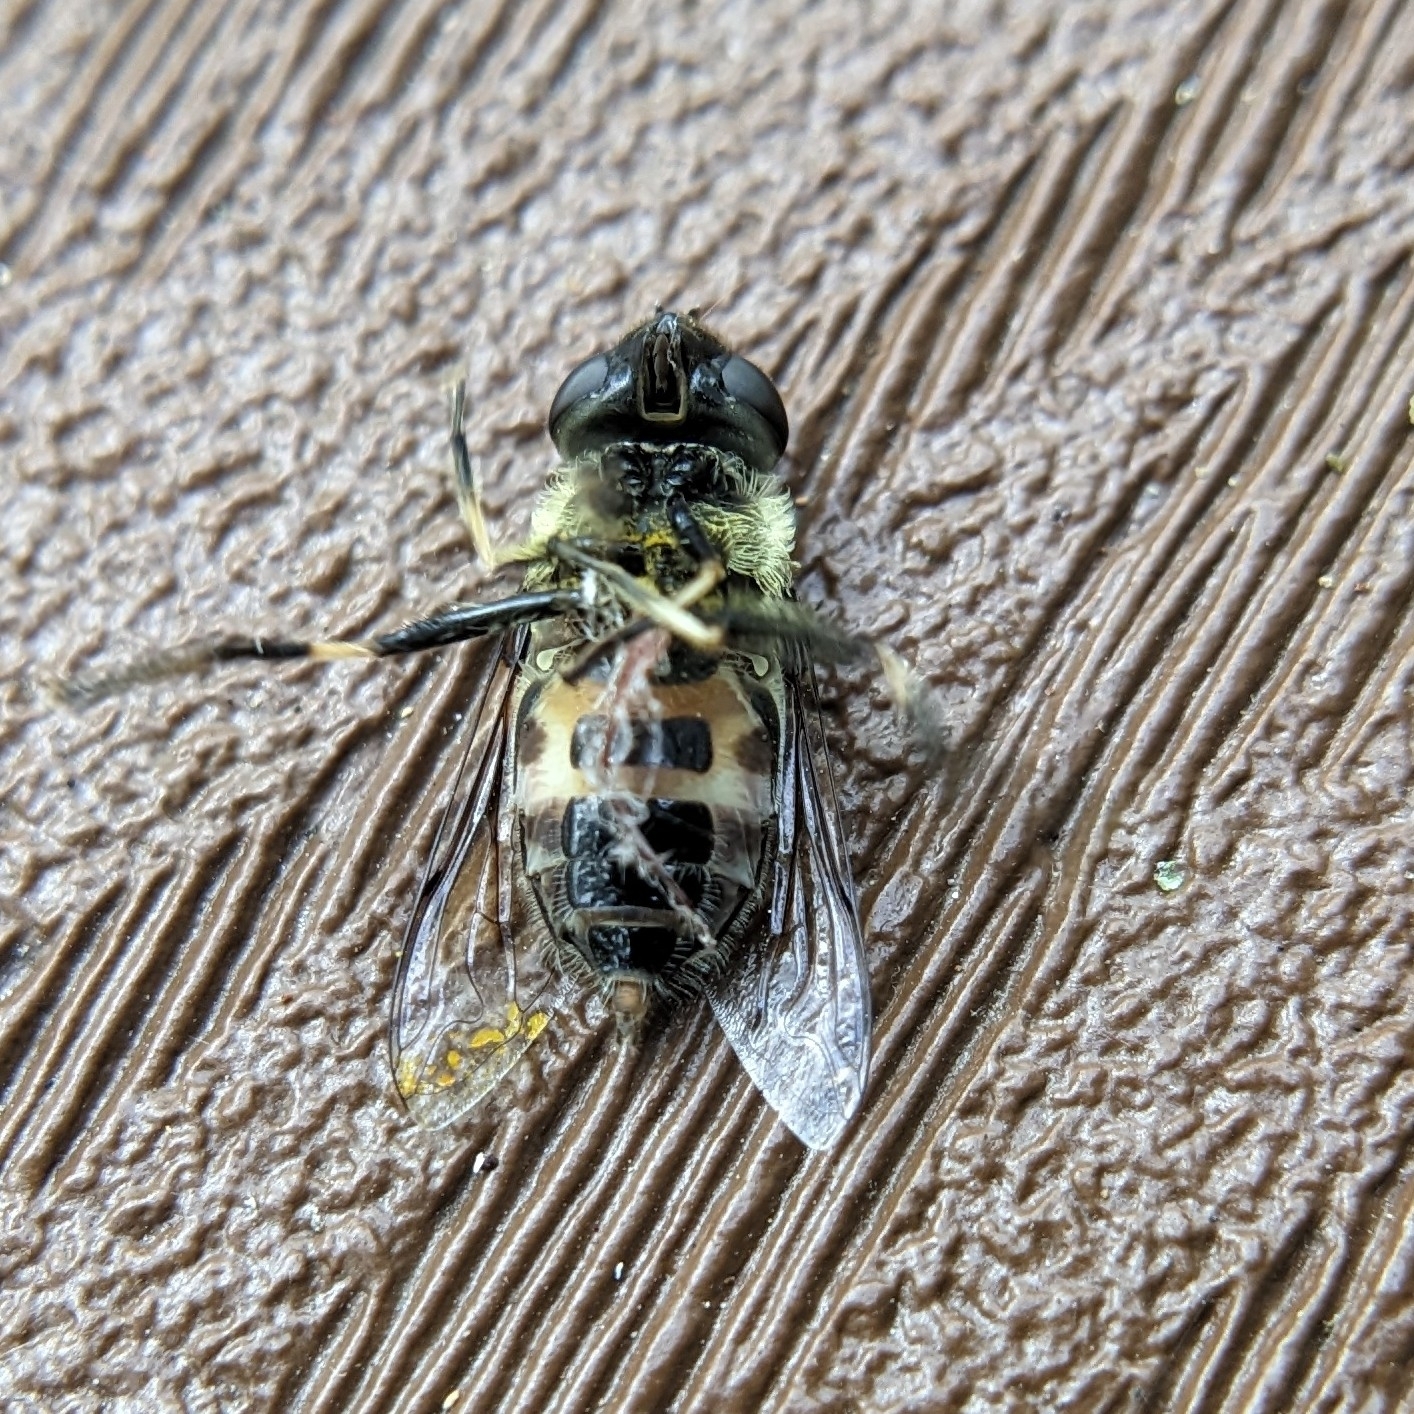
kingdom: Animalia
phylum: Arthropoda
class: Insecta
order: Diptera
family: Syrphidae
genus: Eristalis
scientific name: Eristalis dimidiata
